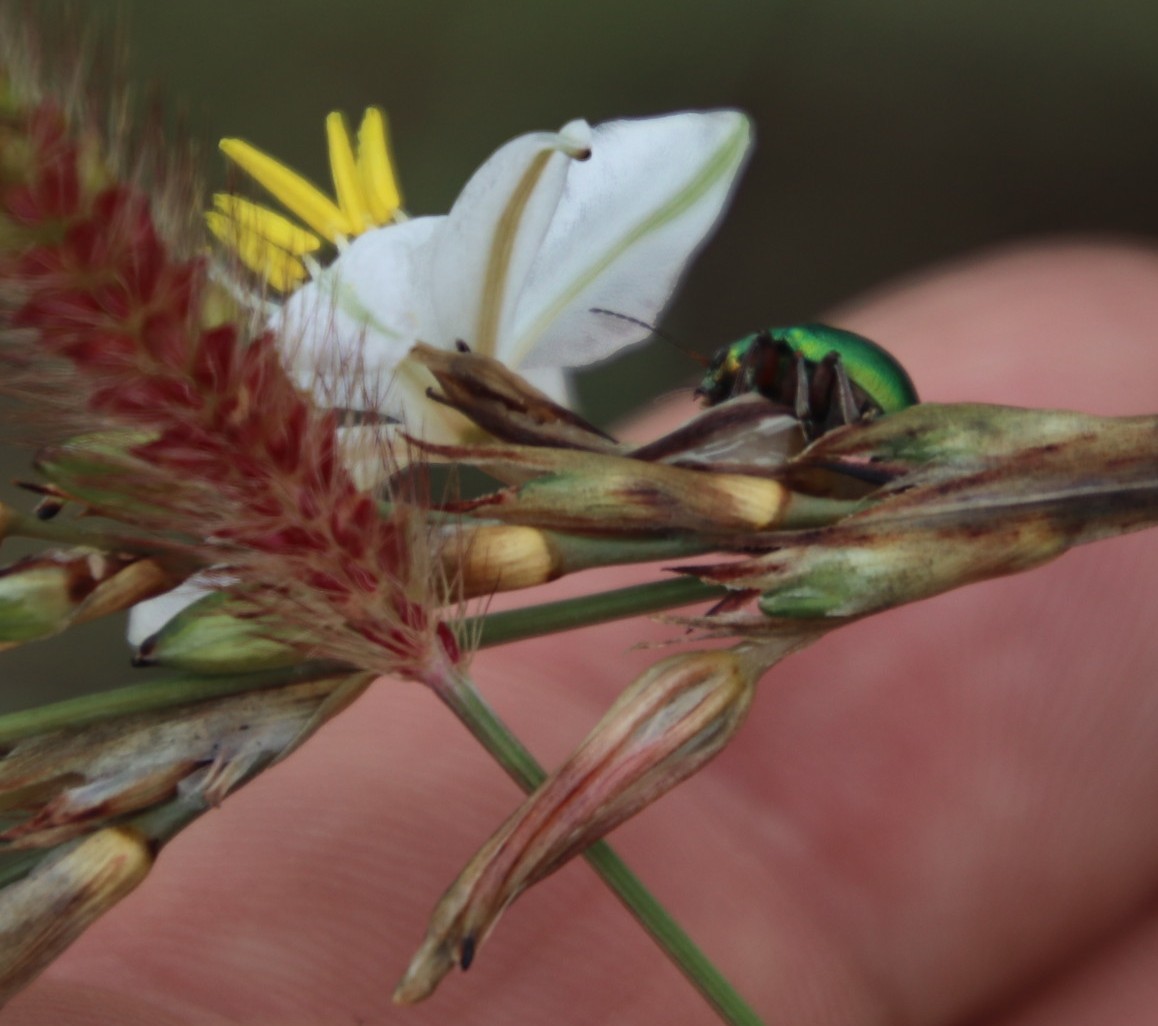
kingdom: Plantae
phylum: Tracheophyta
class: Liliopsida
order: Asparagales
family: Asparagaceae
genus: Chlorophytum
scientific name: Chlorophytum cooperi
